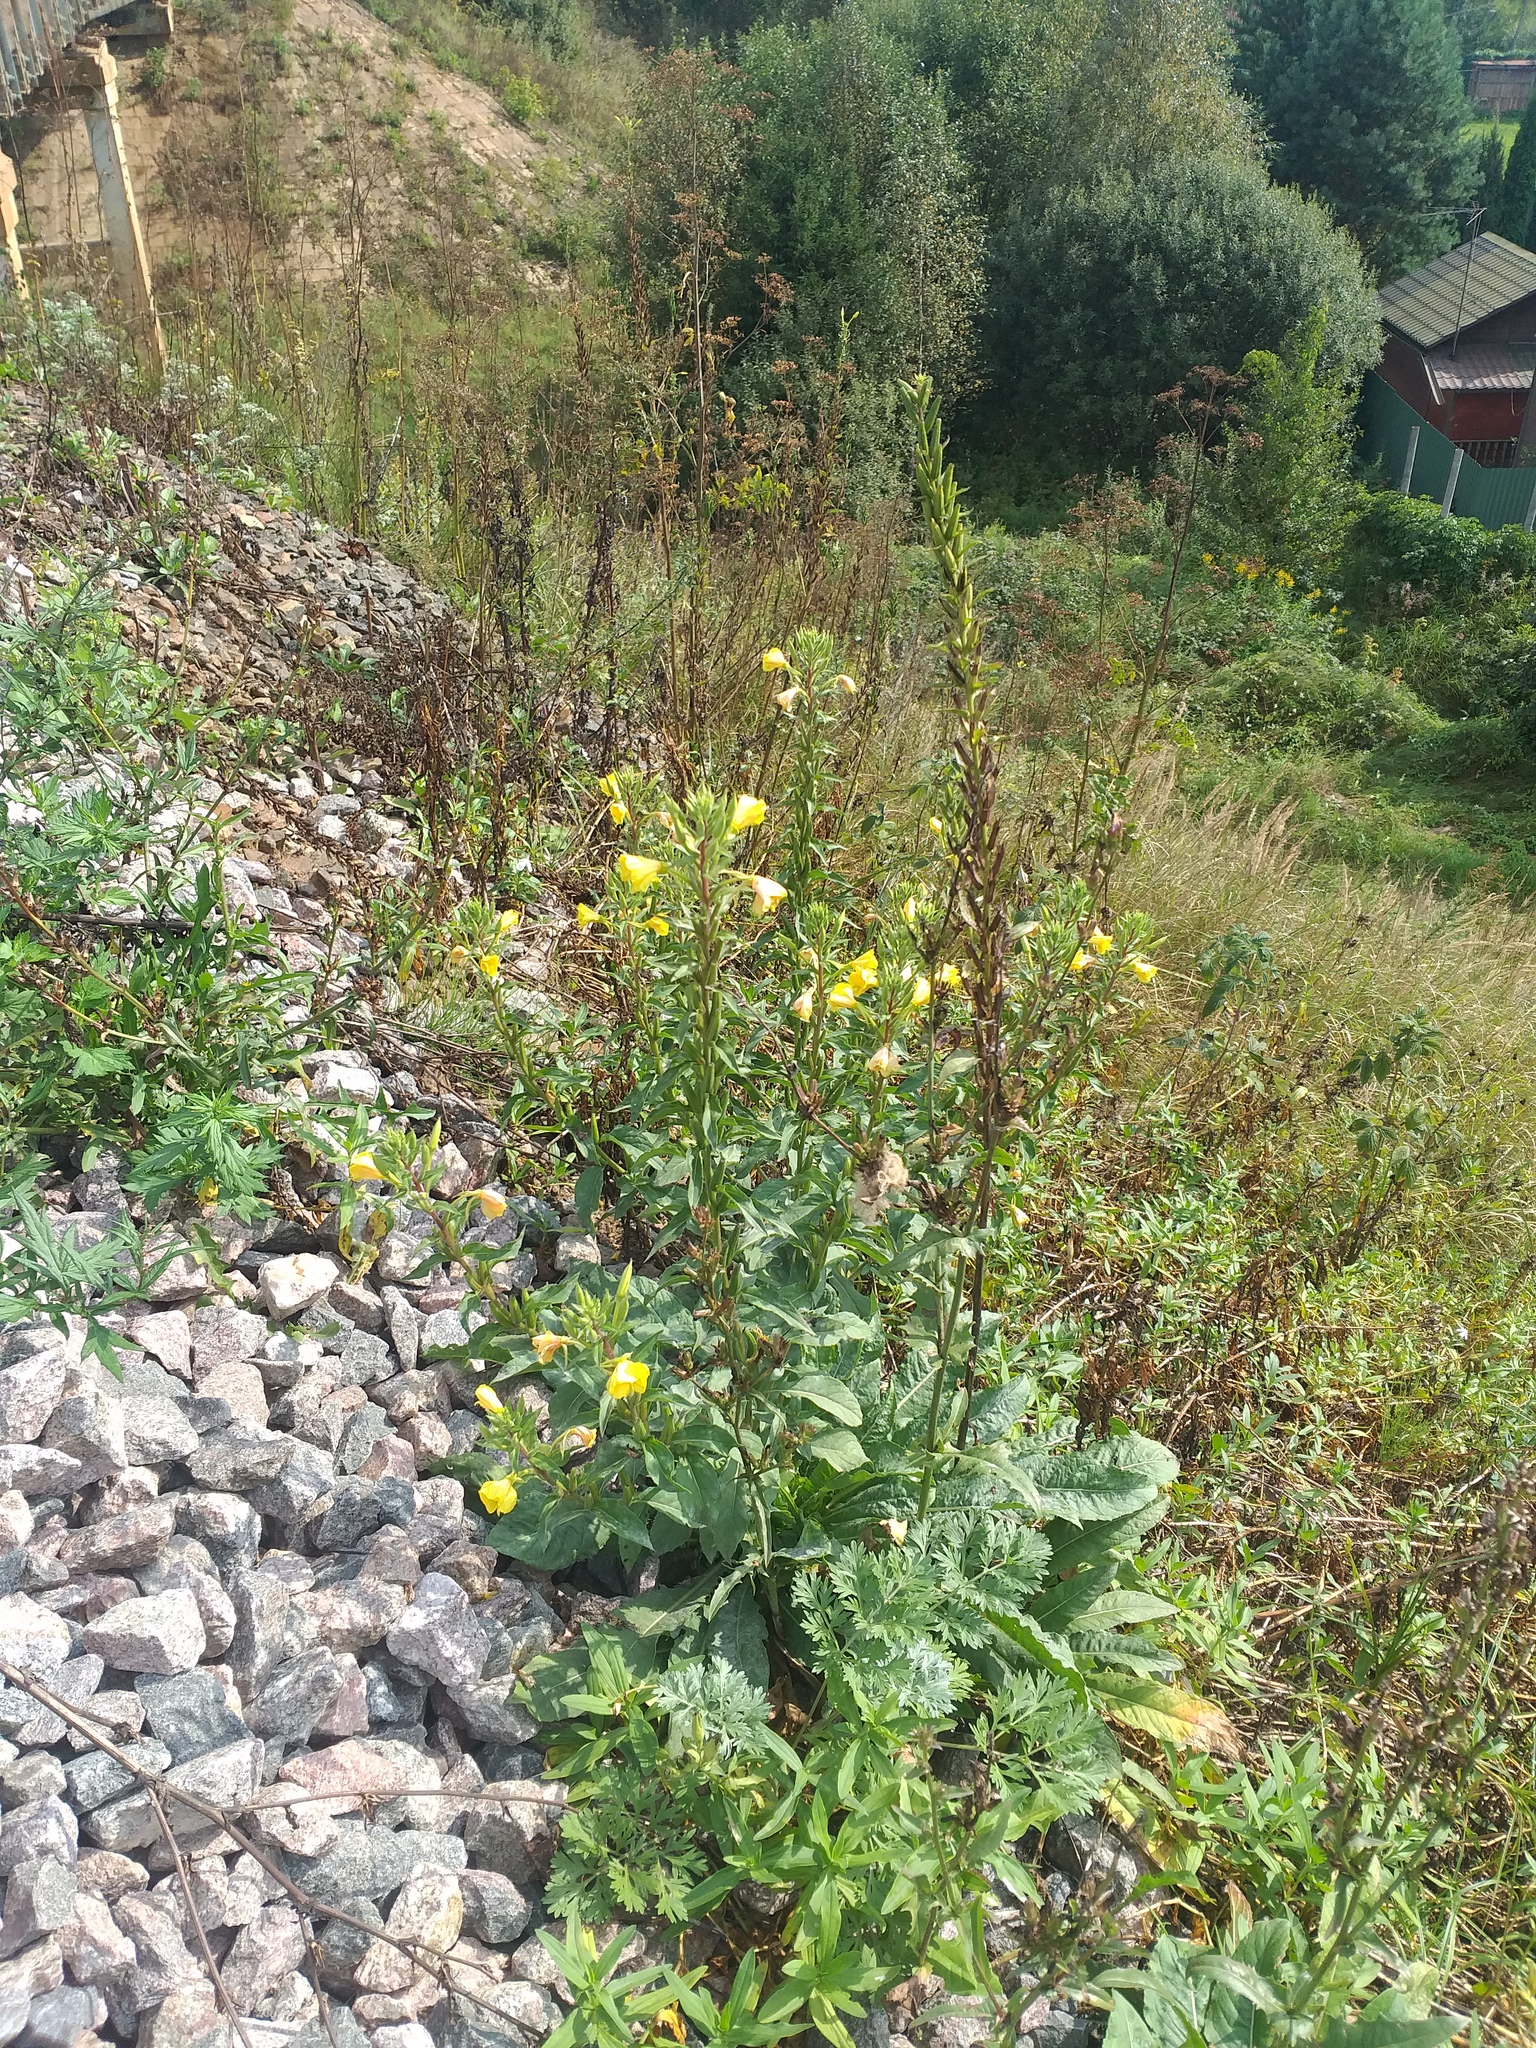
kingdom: Plantae
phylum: Tracheophyta
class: Magnoliopsida
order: Myrtales
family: Onagraceae
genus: Oenothera
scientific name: Oenothera rubricaulis
